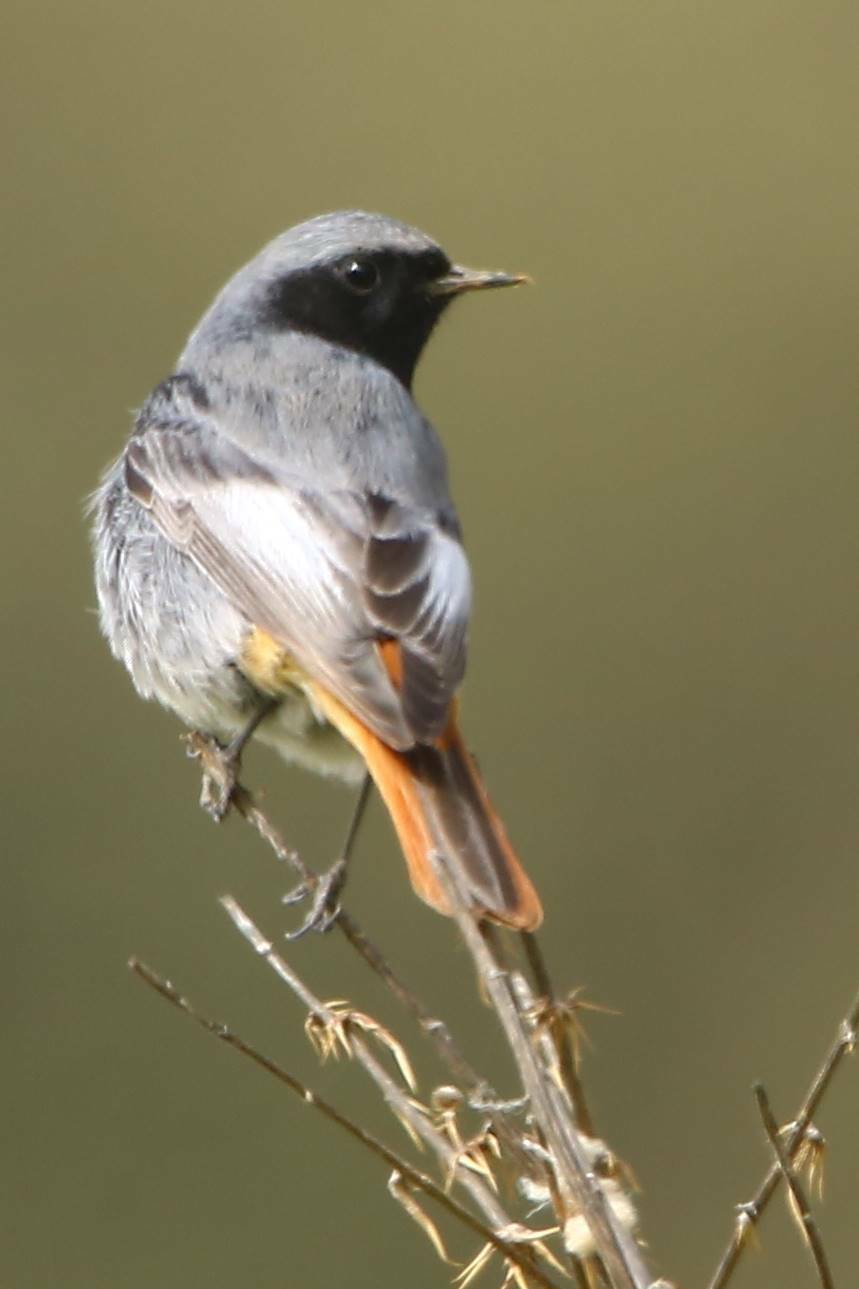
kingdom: Animalia
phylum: Chordata
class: Aves
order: Passeriformes
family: Muscicapidae
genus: Phoenicurus
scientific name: Phoenicurus ochruros
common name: Black redstart
